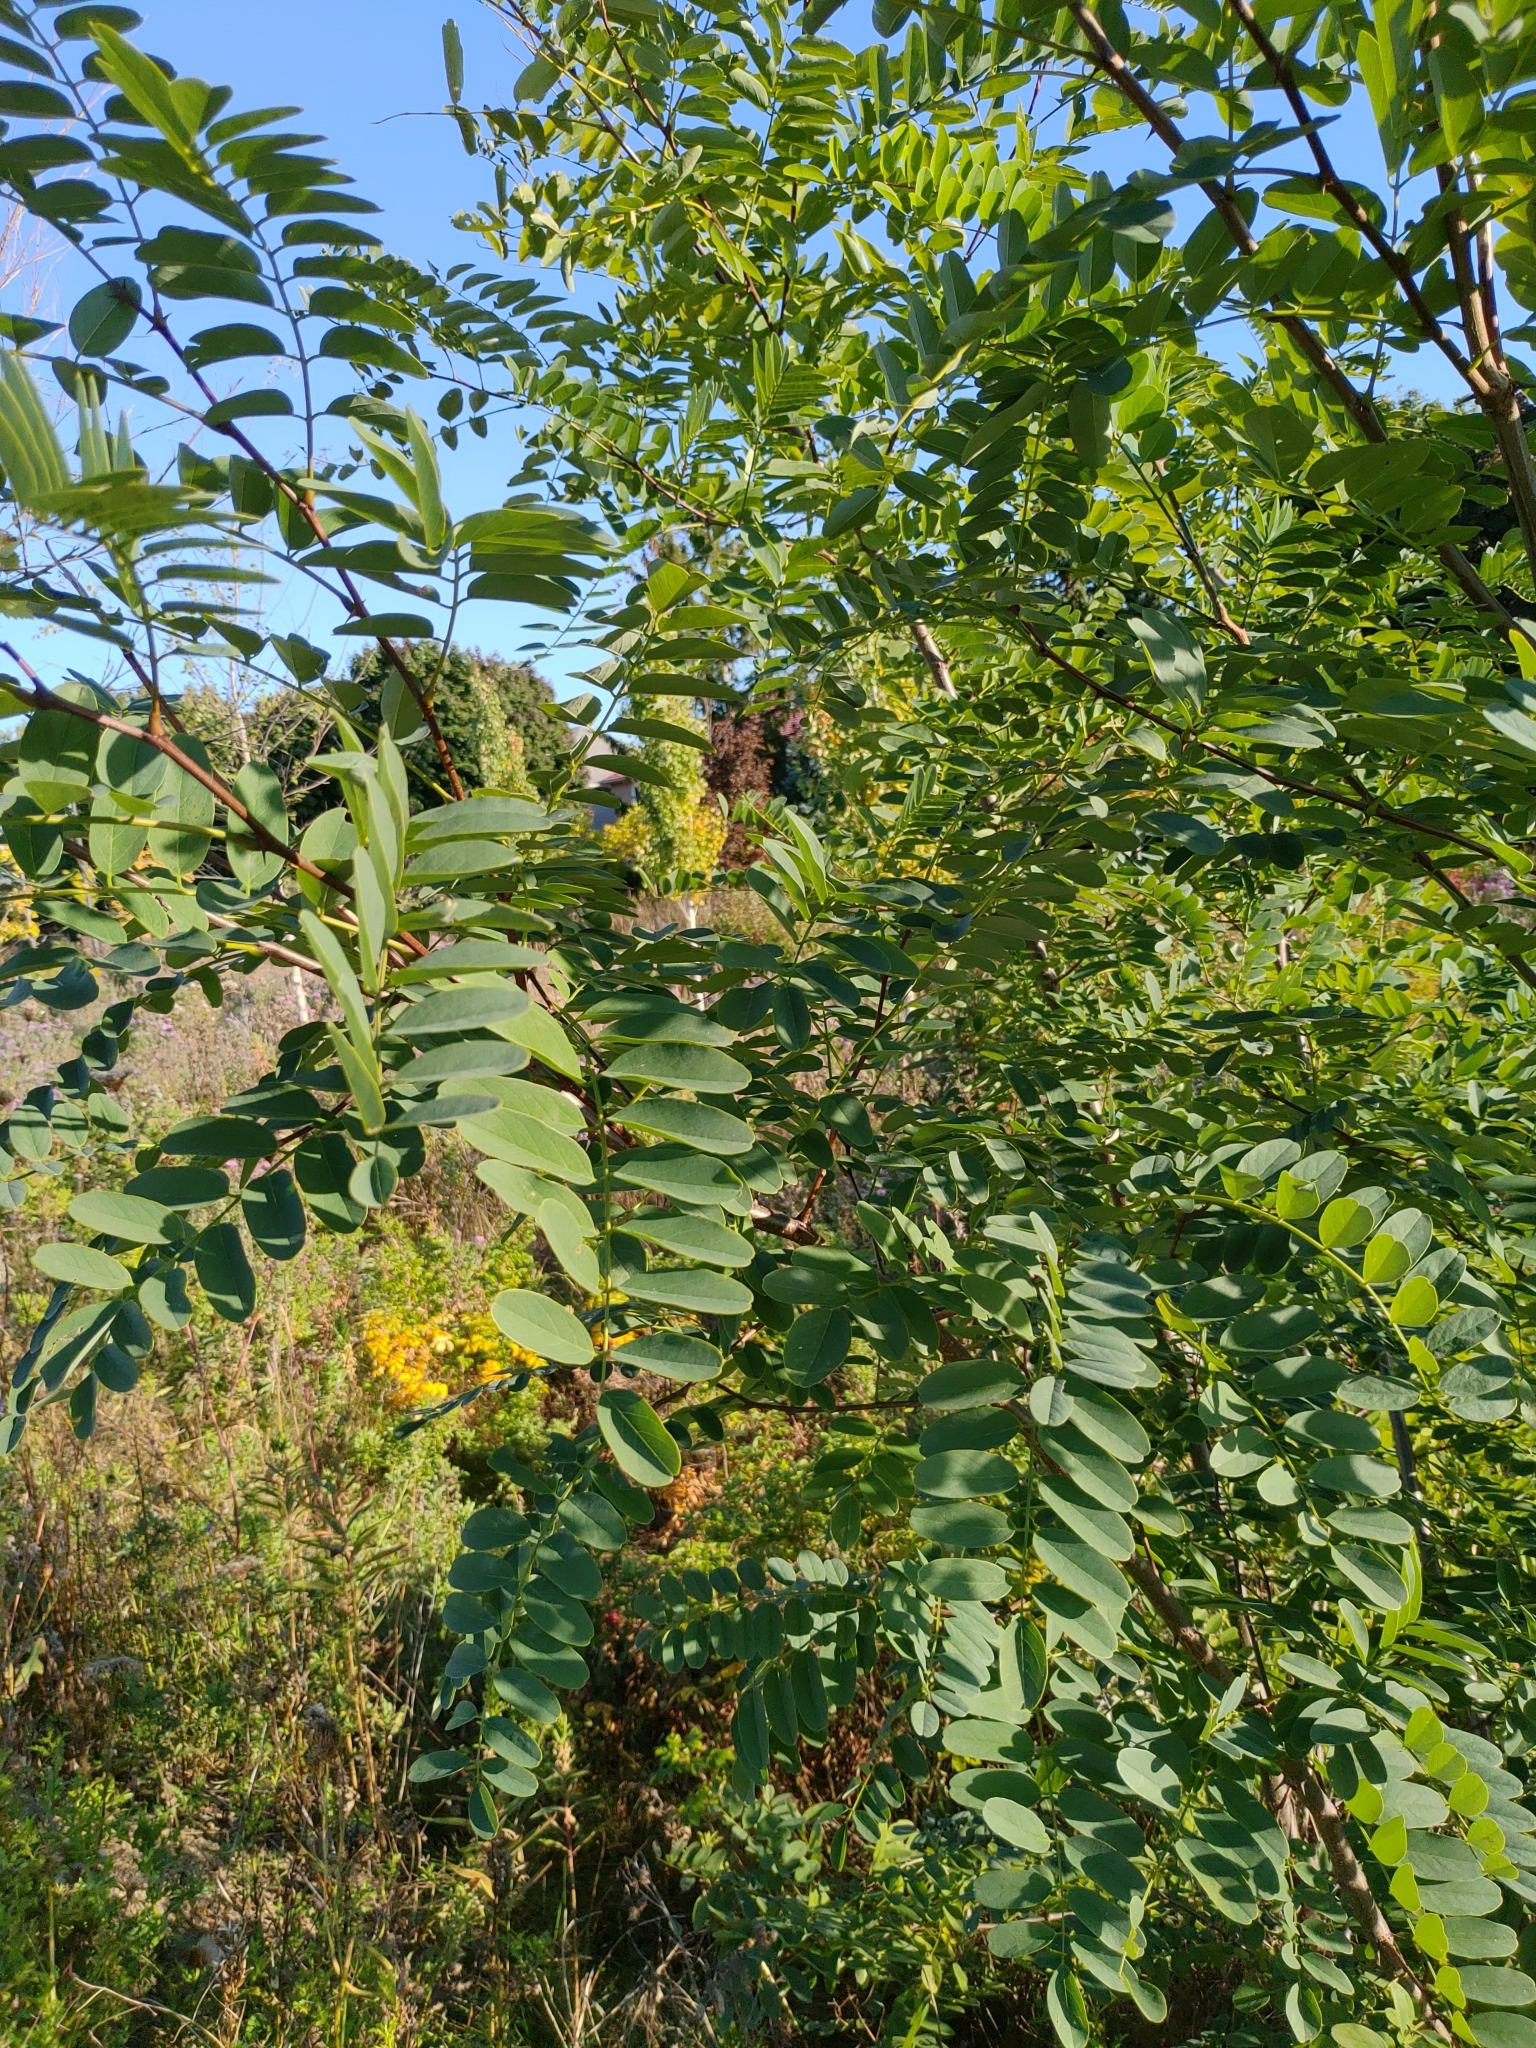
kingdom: Plantae
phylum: Tracheophyta
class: Magnoliopsida
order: Fabales
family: Fabaceae
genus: Robinia
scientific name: Robinia pseudoacacia
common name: Black locust
